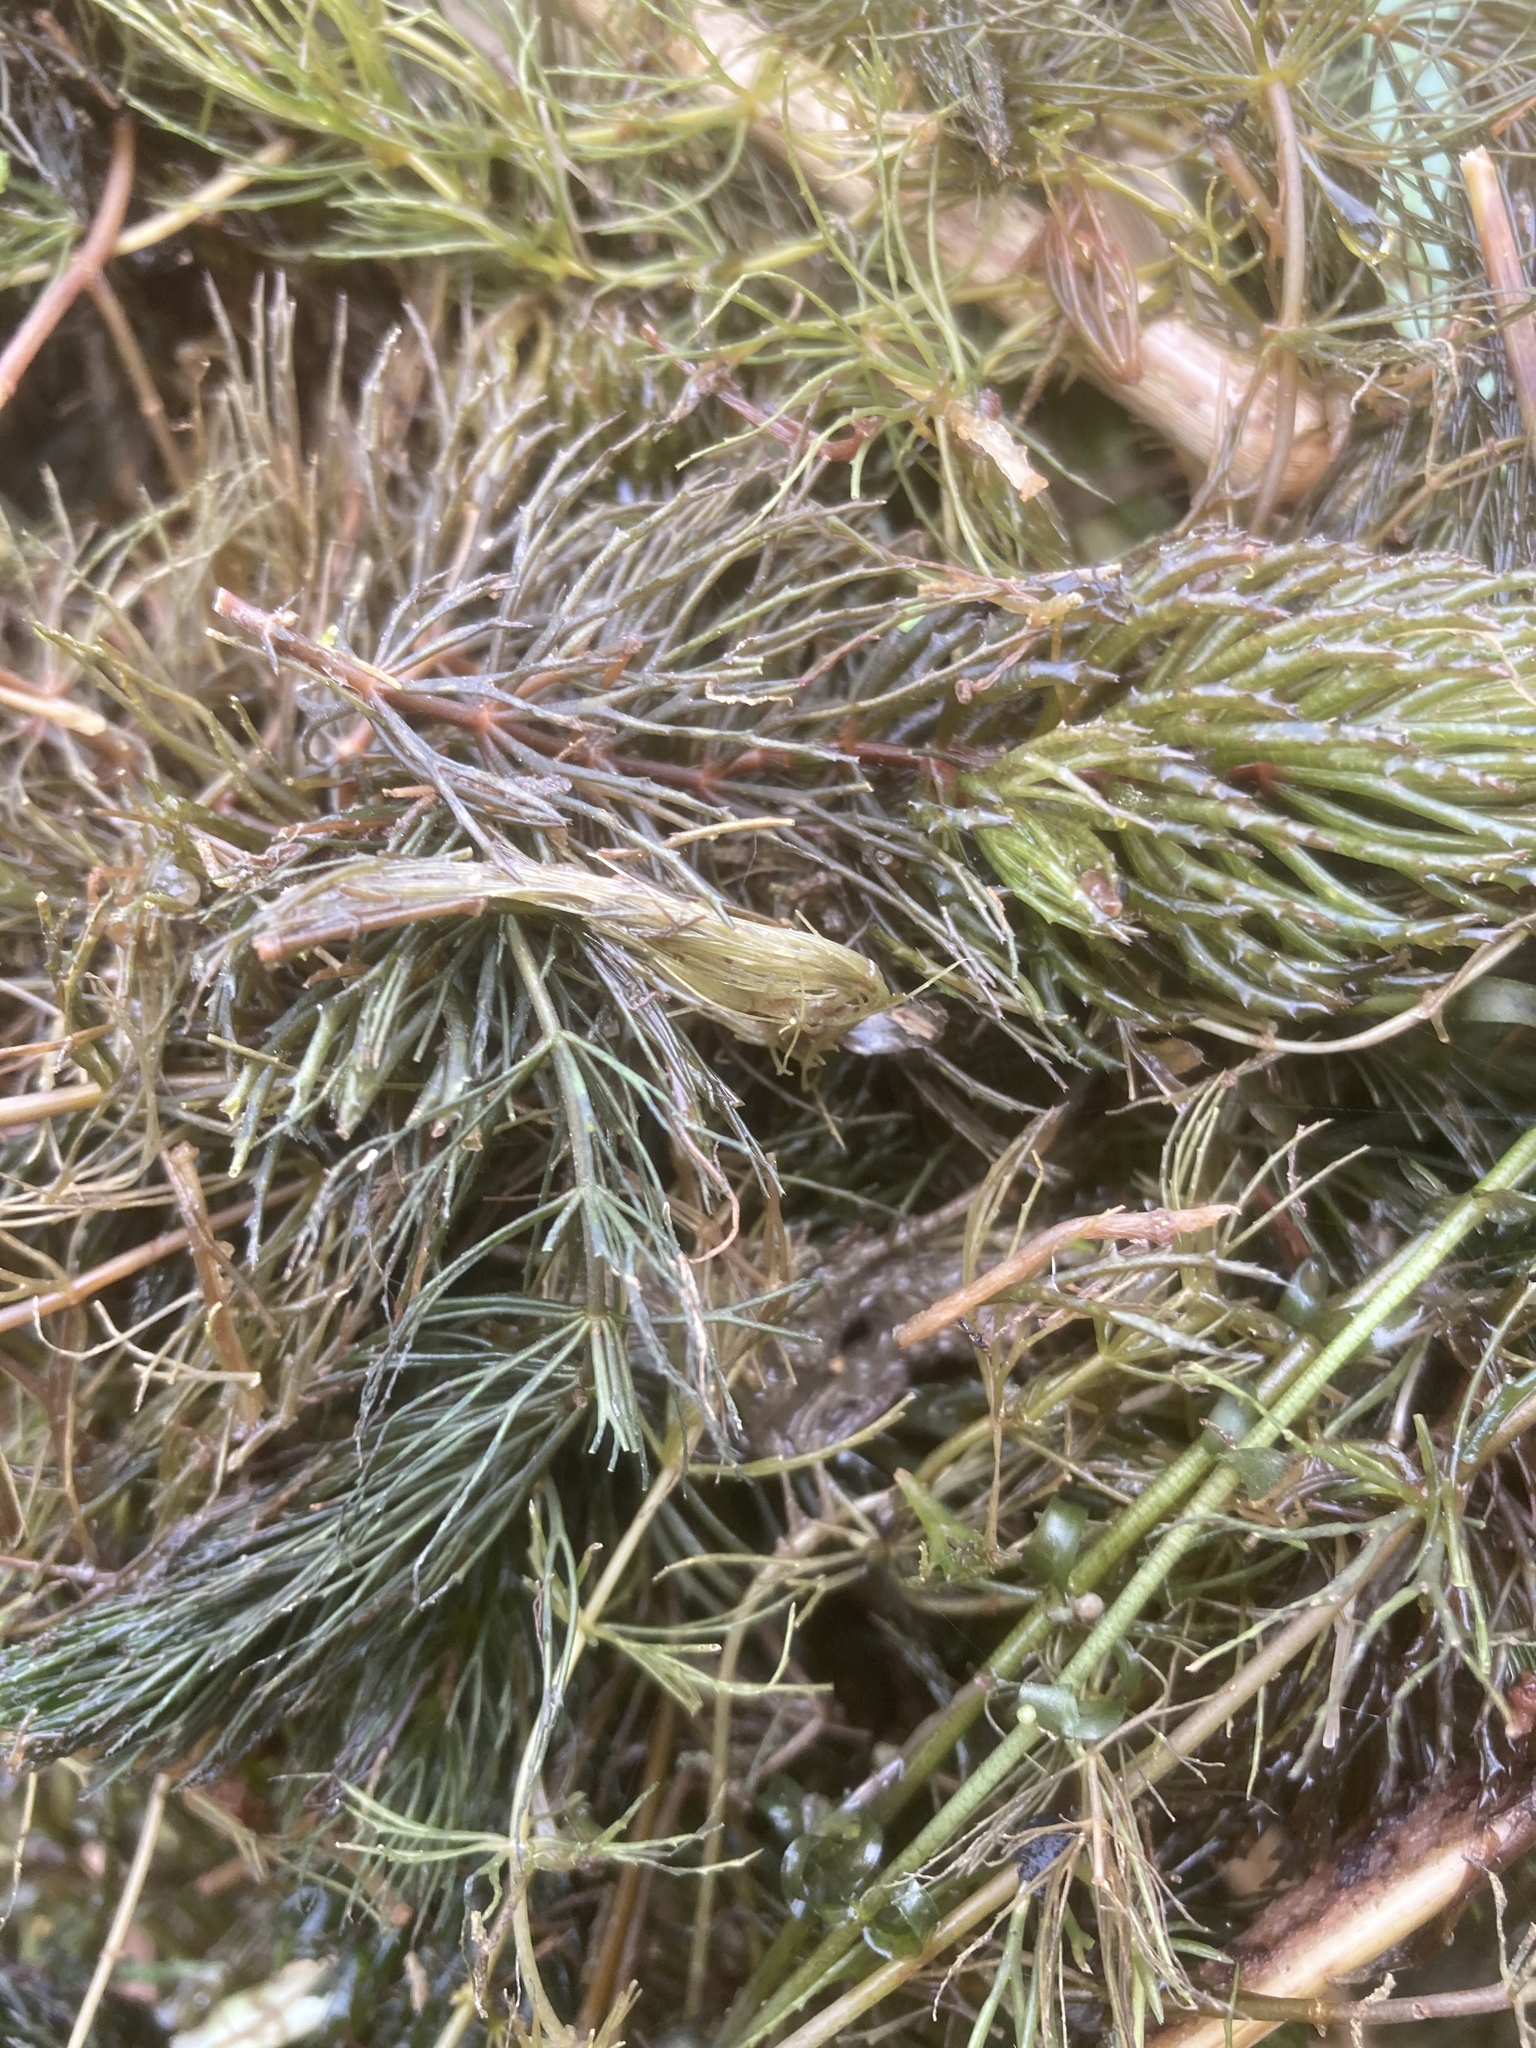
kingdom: Plantae
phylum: Tracheophyta
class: Magnoliopsida
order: Ceratophyllales
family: Ceratophyllaceae
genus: Ceratophyllum
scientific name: Ceratophyllum demersum
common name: Rigid hornwort
